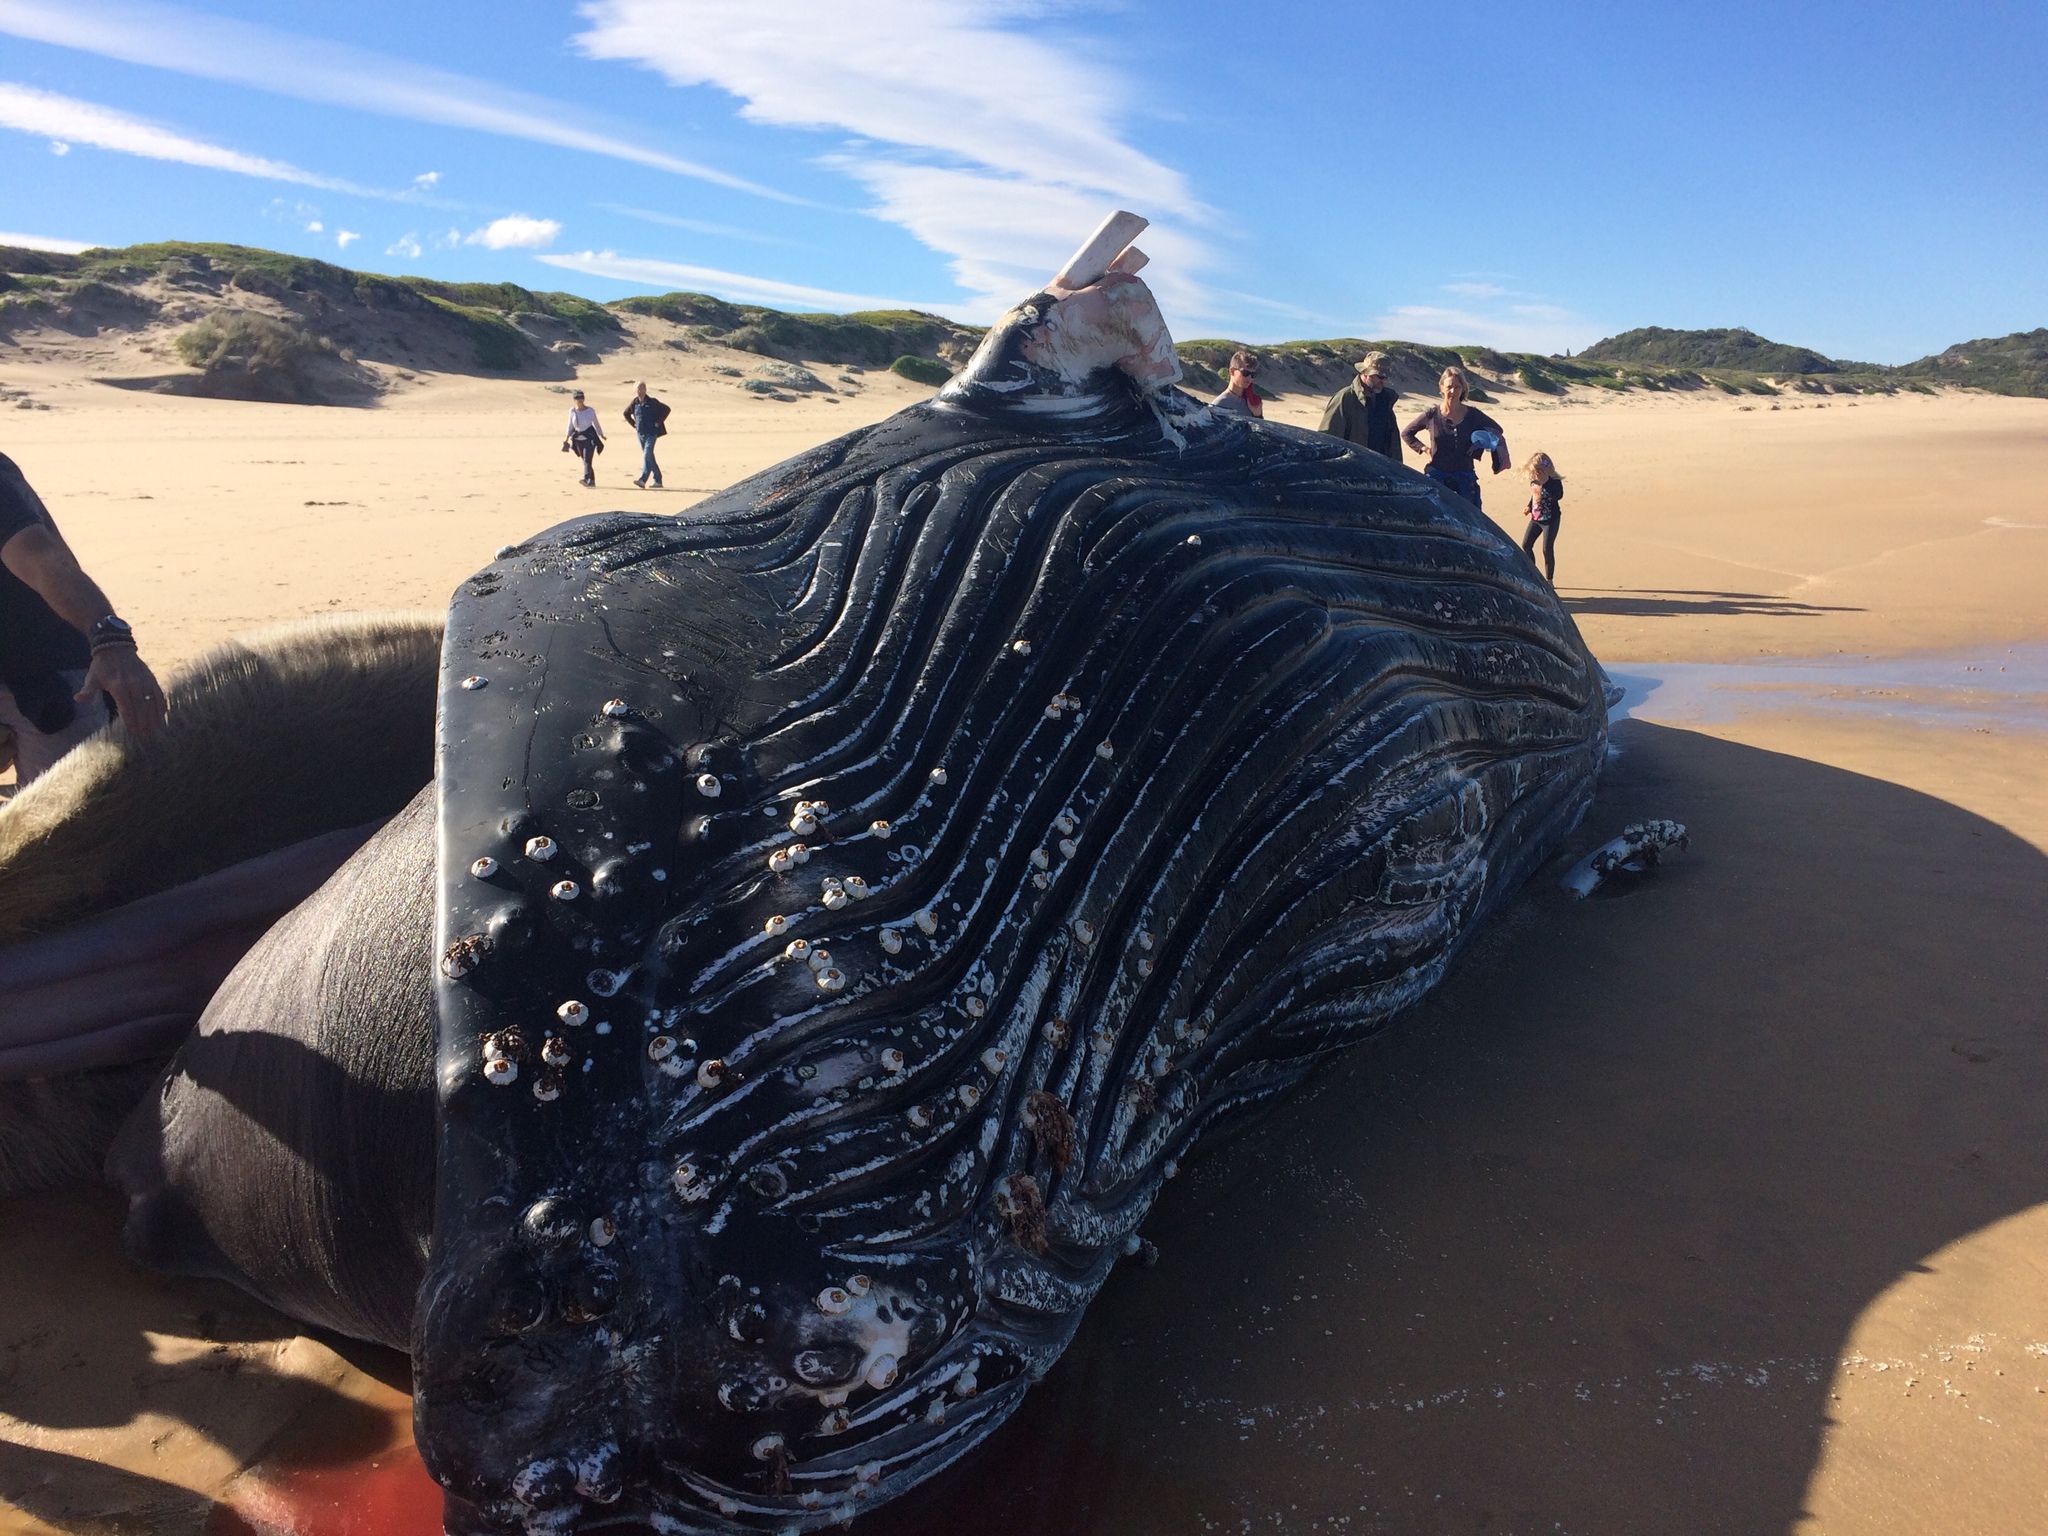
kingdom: Animalia
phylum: Chordata
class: Mammalia
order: Cetacea
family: Balaenopteridae
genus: Megaptera
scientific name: Megaptera novaeangliae
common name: Humpback whale
